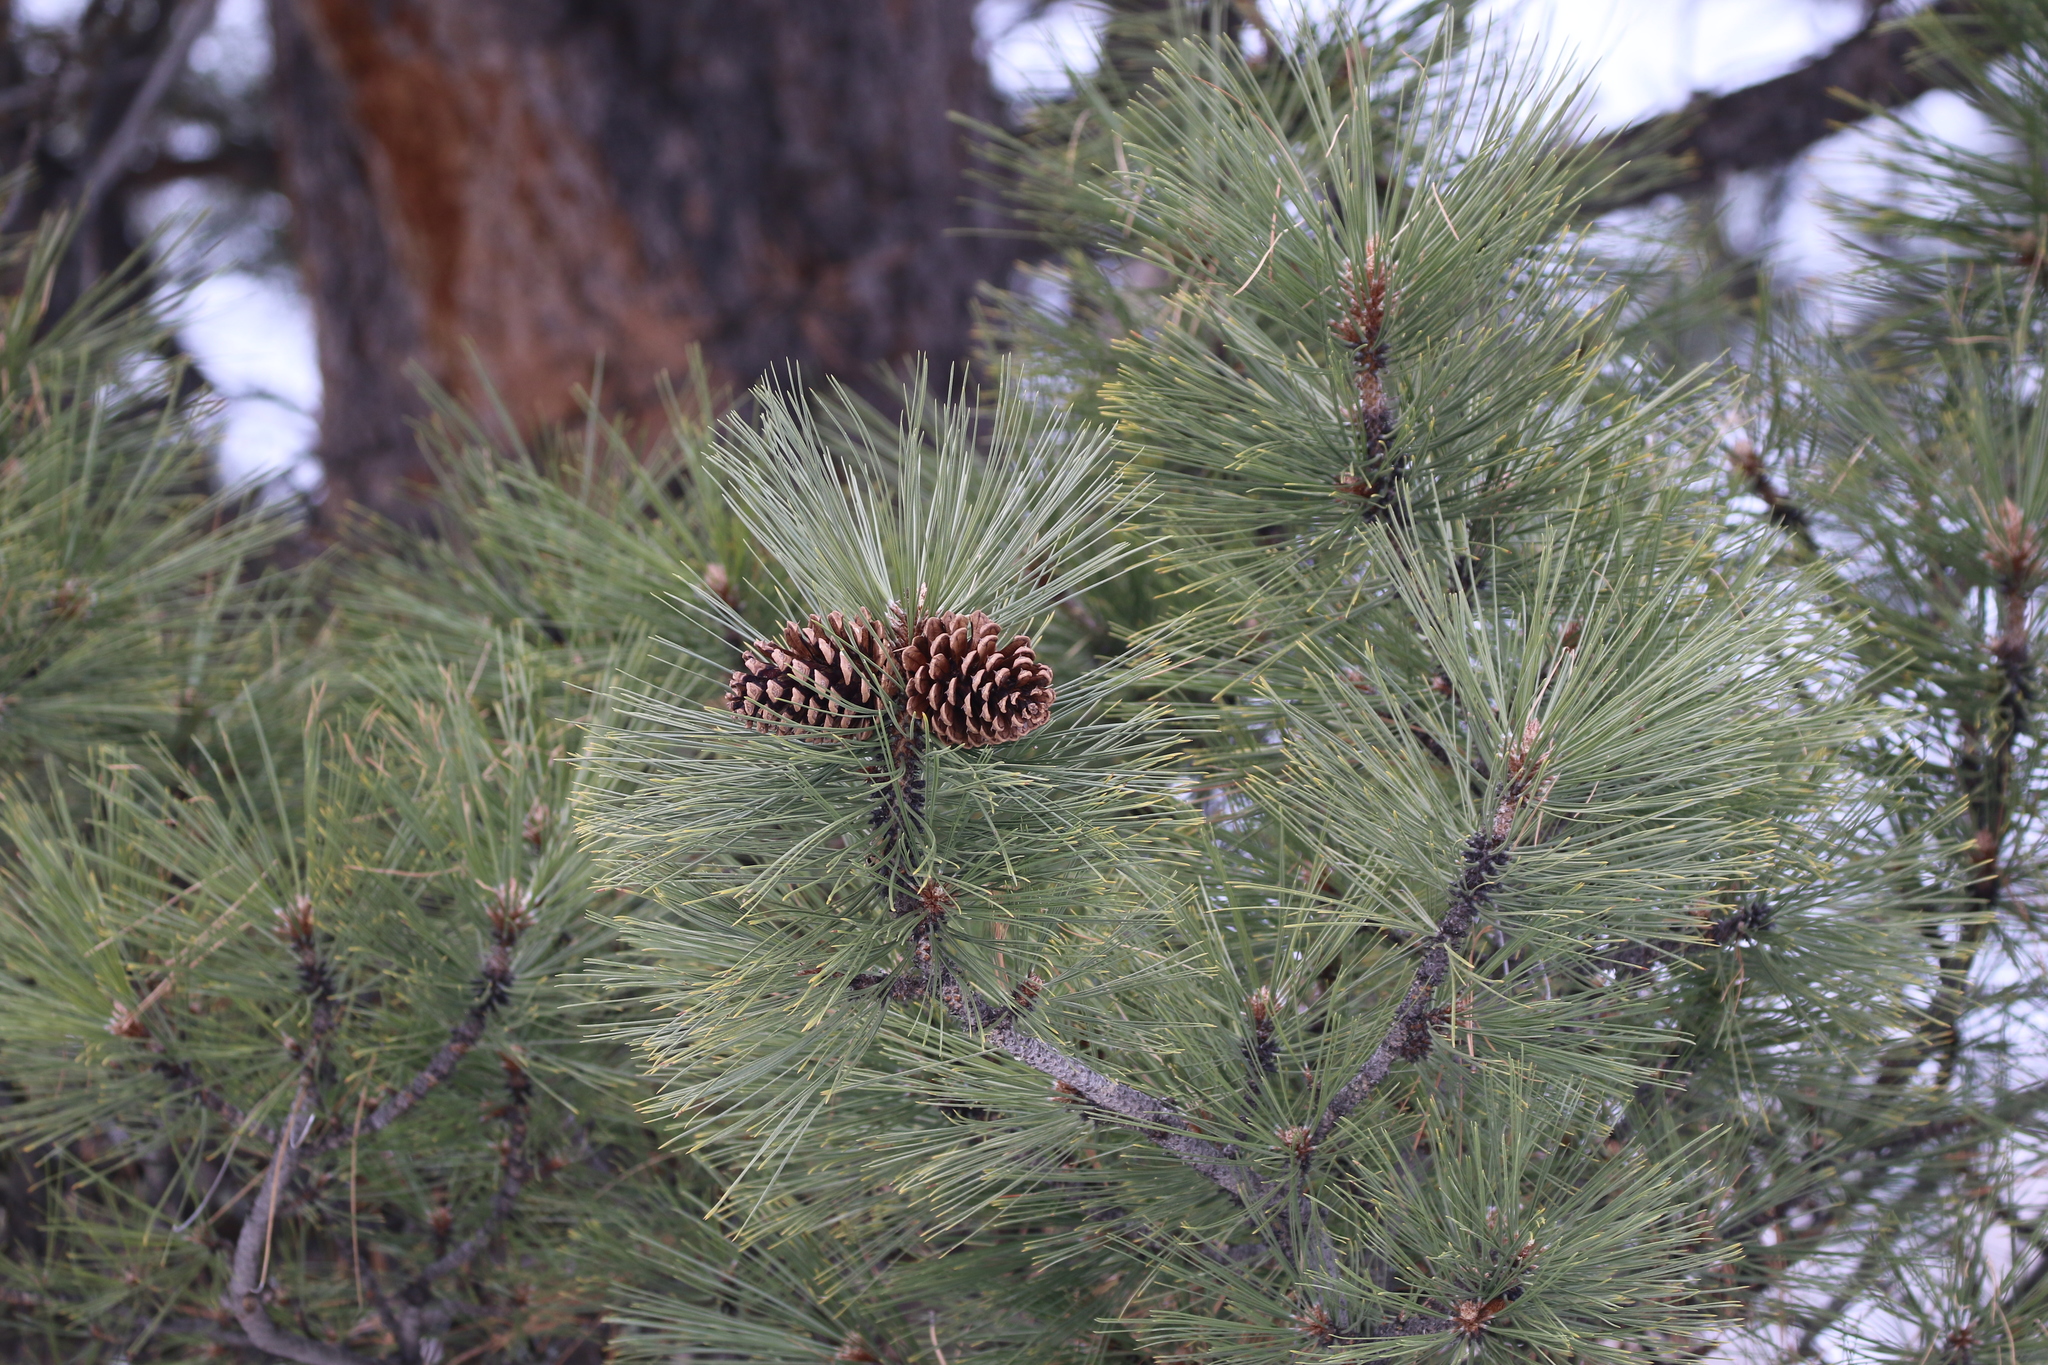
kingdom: Plantae
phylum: Tracheophyta
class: Pinopsida
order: Pinales
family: Pinaceae
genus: Pinus
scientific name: Pinus ponderosa
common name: Western yellow-pine
